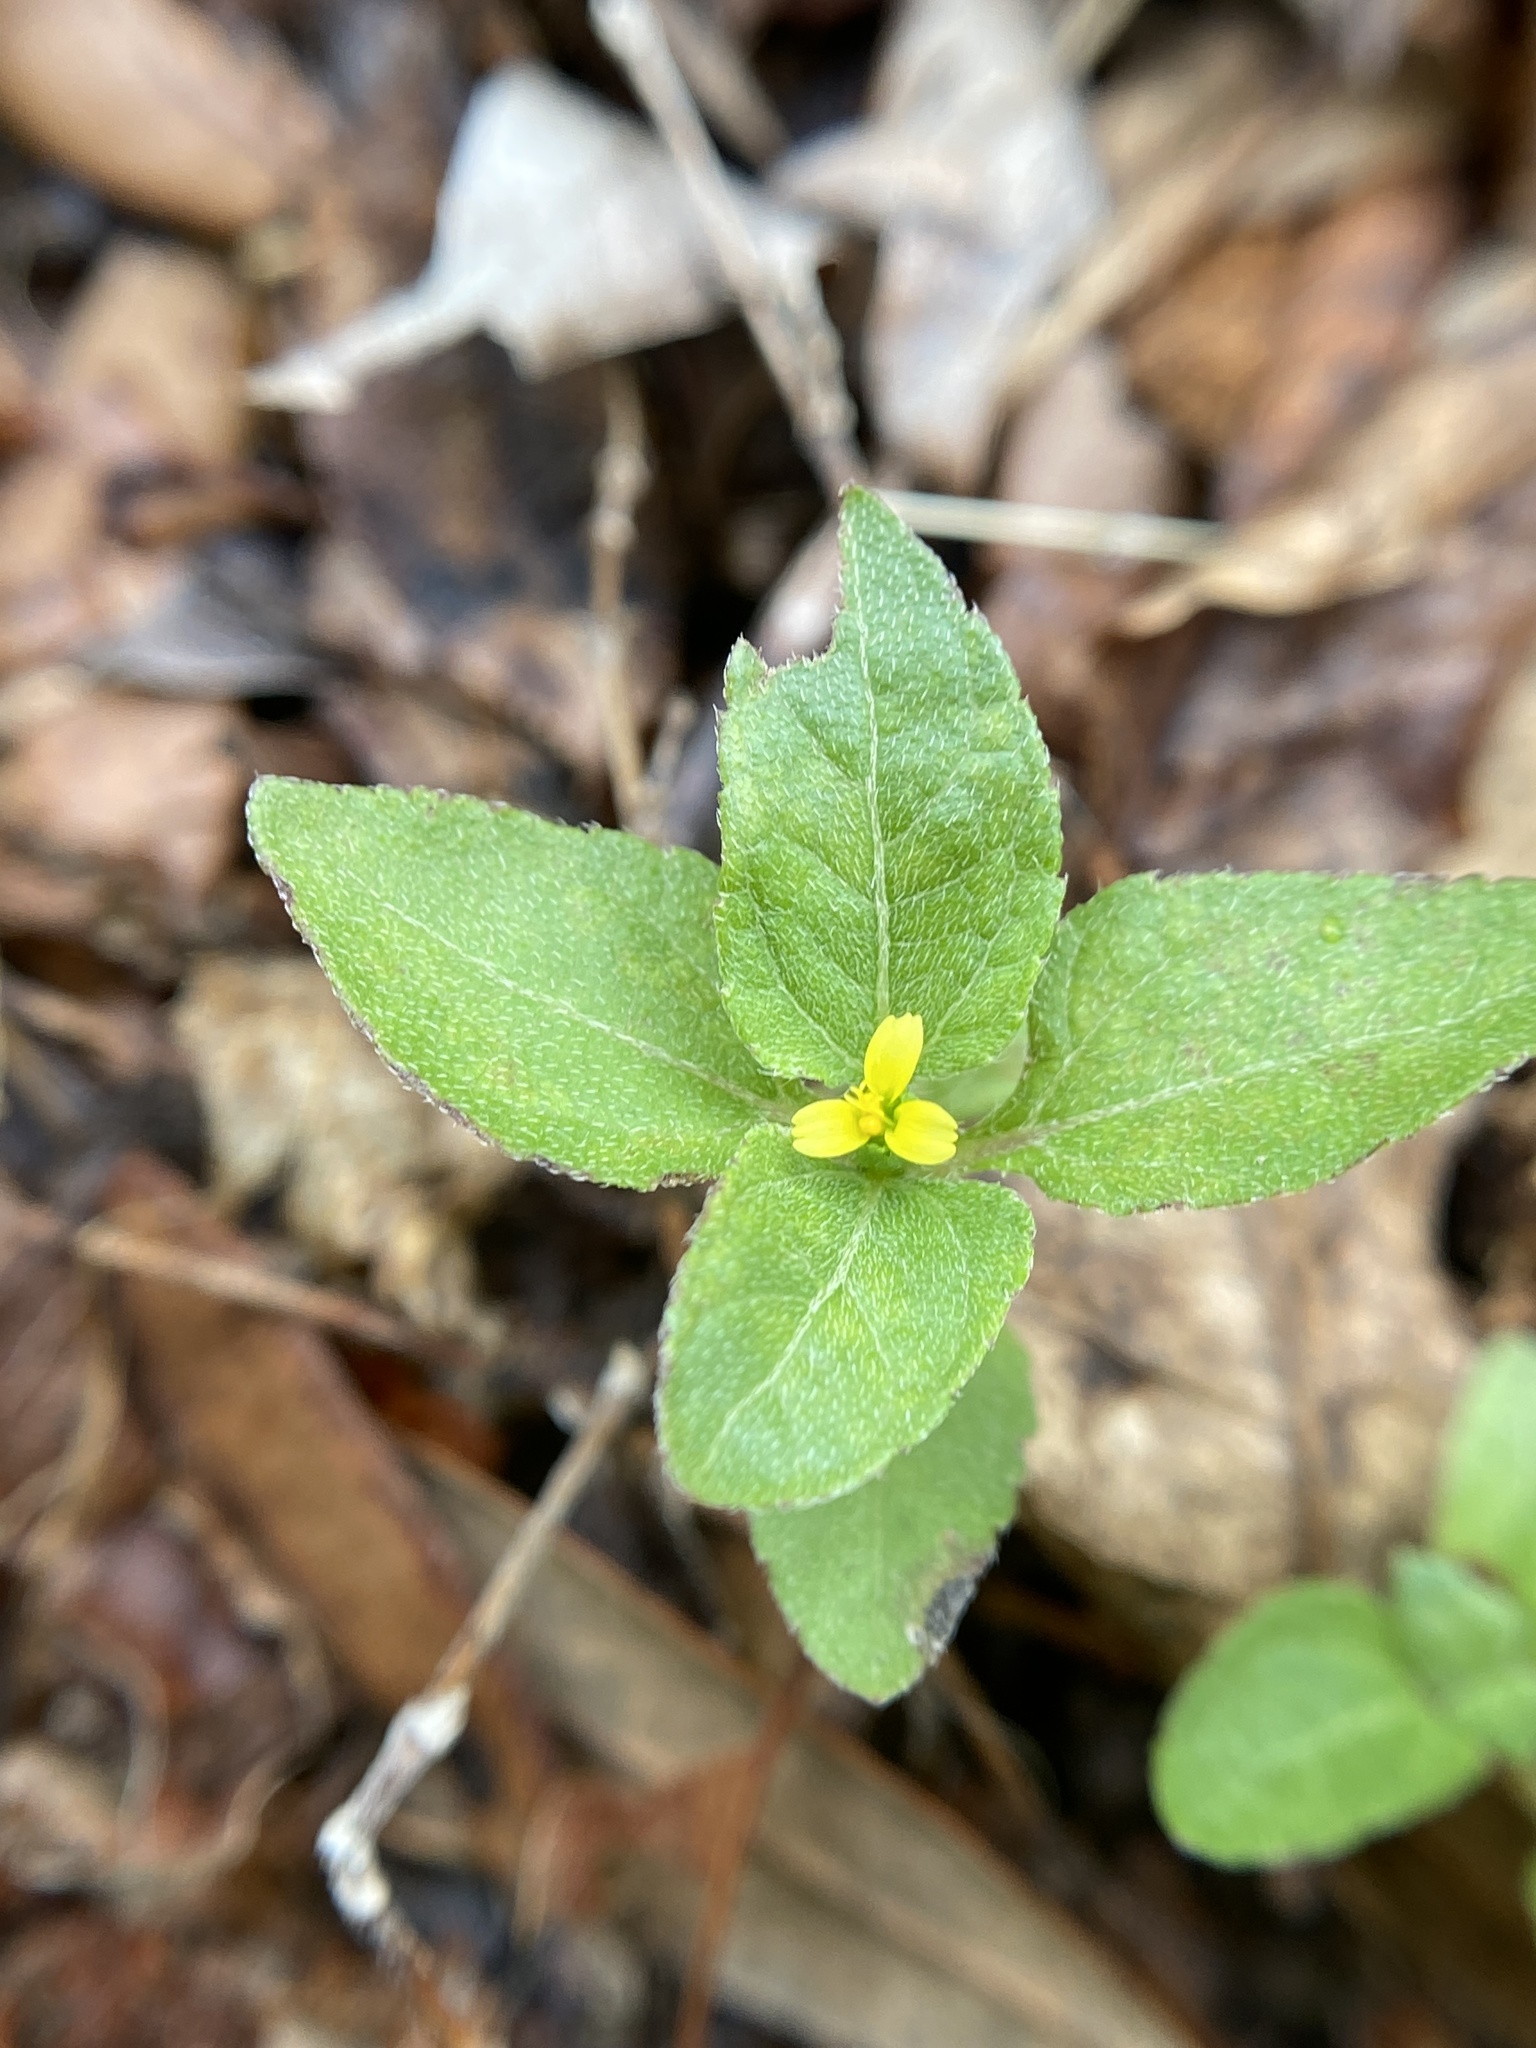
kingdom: Plantae
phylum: Tracheophyta
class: Magnoliopsida
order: Asterales
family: Asteraceae
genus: Calyptocarpus
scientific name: Calyptocarpus vialis
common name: Straggler daisy
